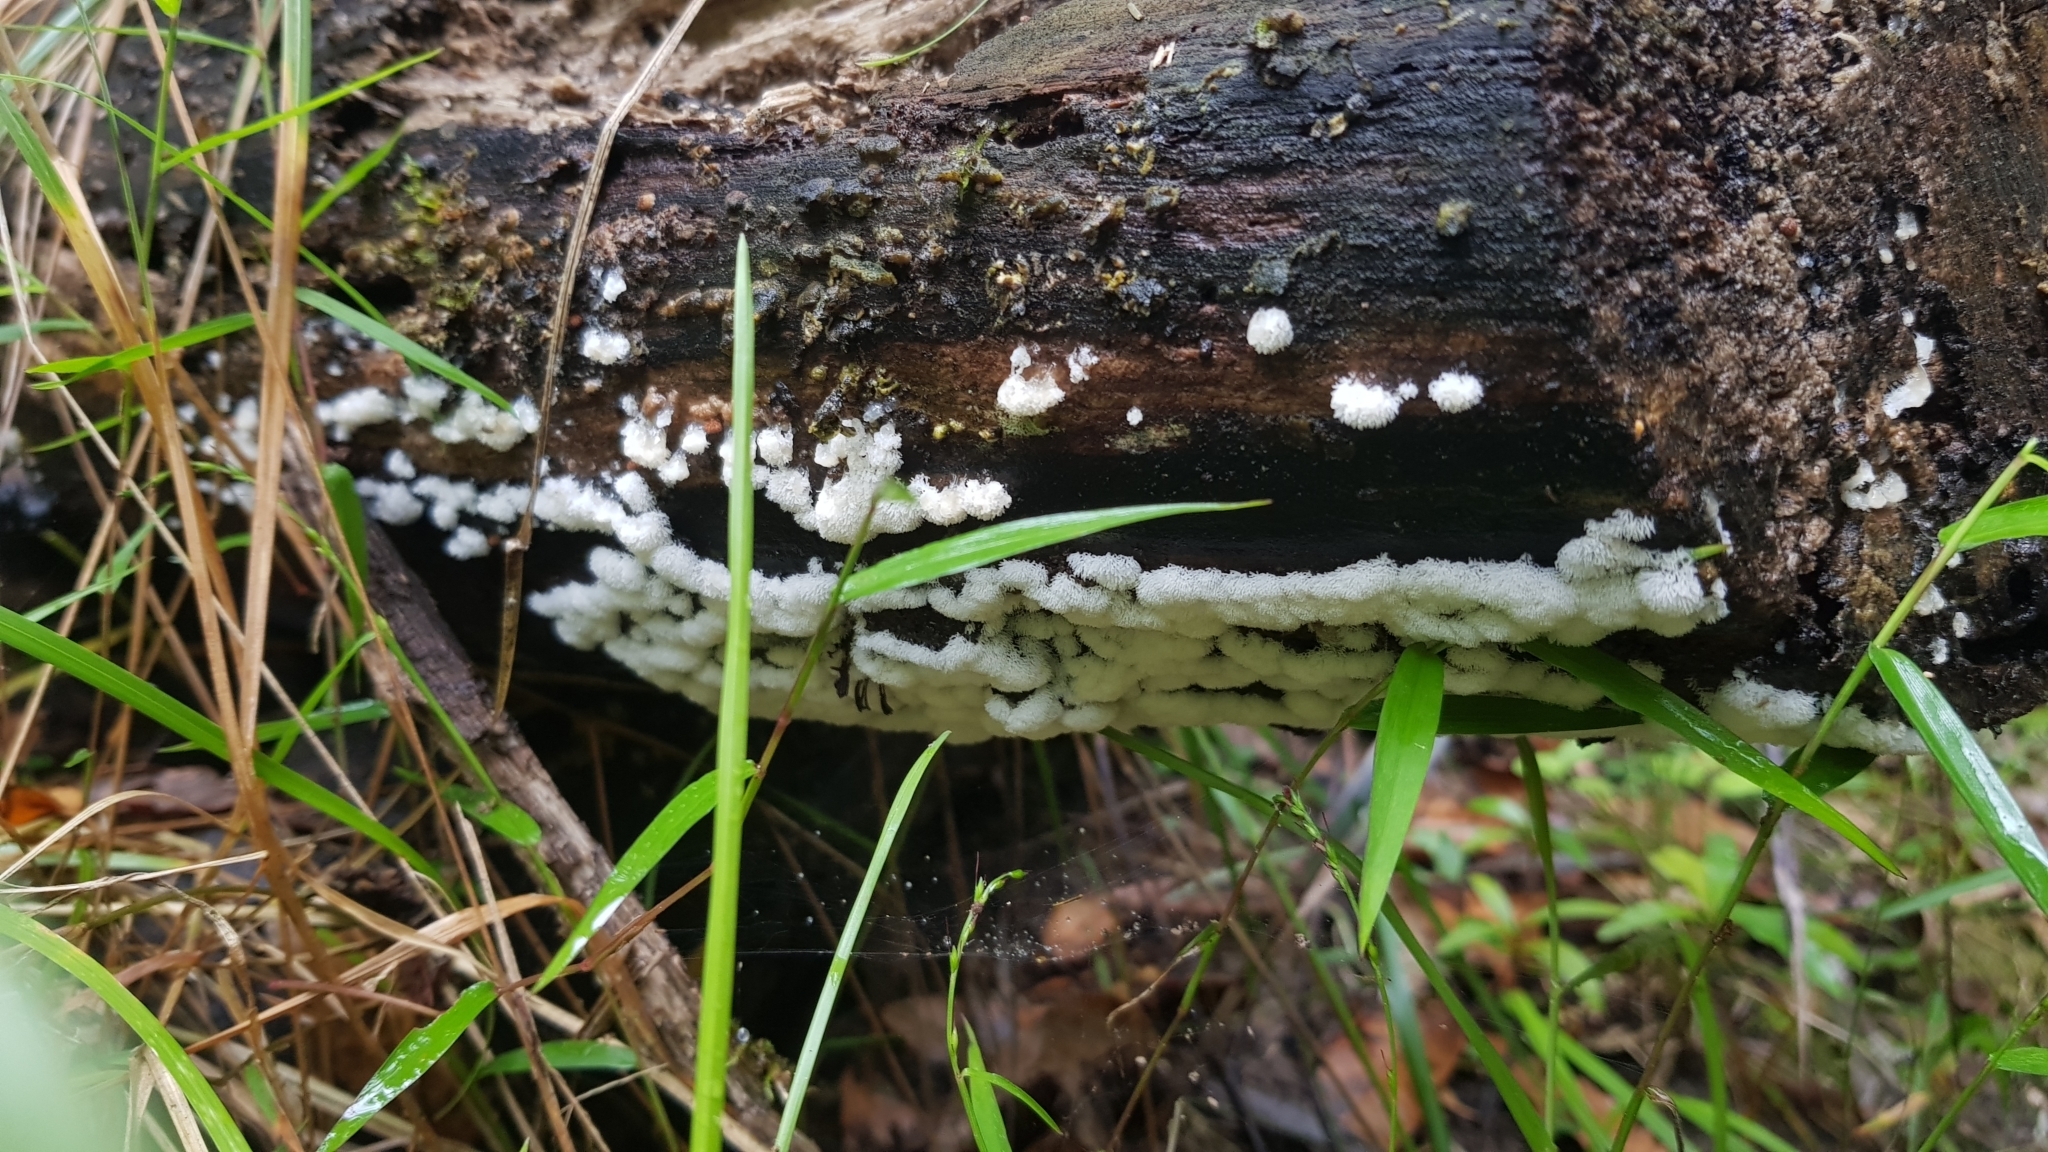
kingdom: Protozoa
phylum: Mycetozoa
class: Protosteliomycetes
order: Ceratiomyxales
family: Ceratiomyxaceae
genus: Ceratiomyxa
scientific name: Ceratiomyxa fruticulosa
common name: Honeycomb coral slime mold
